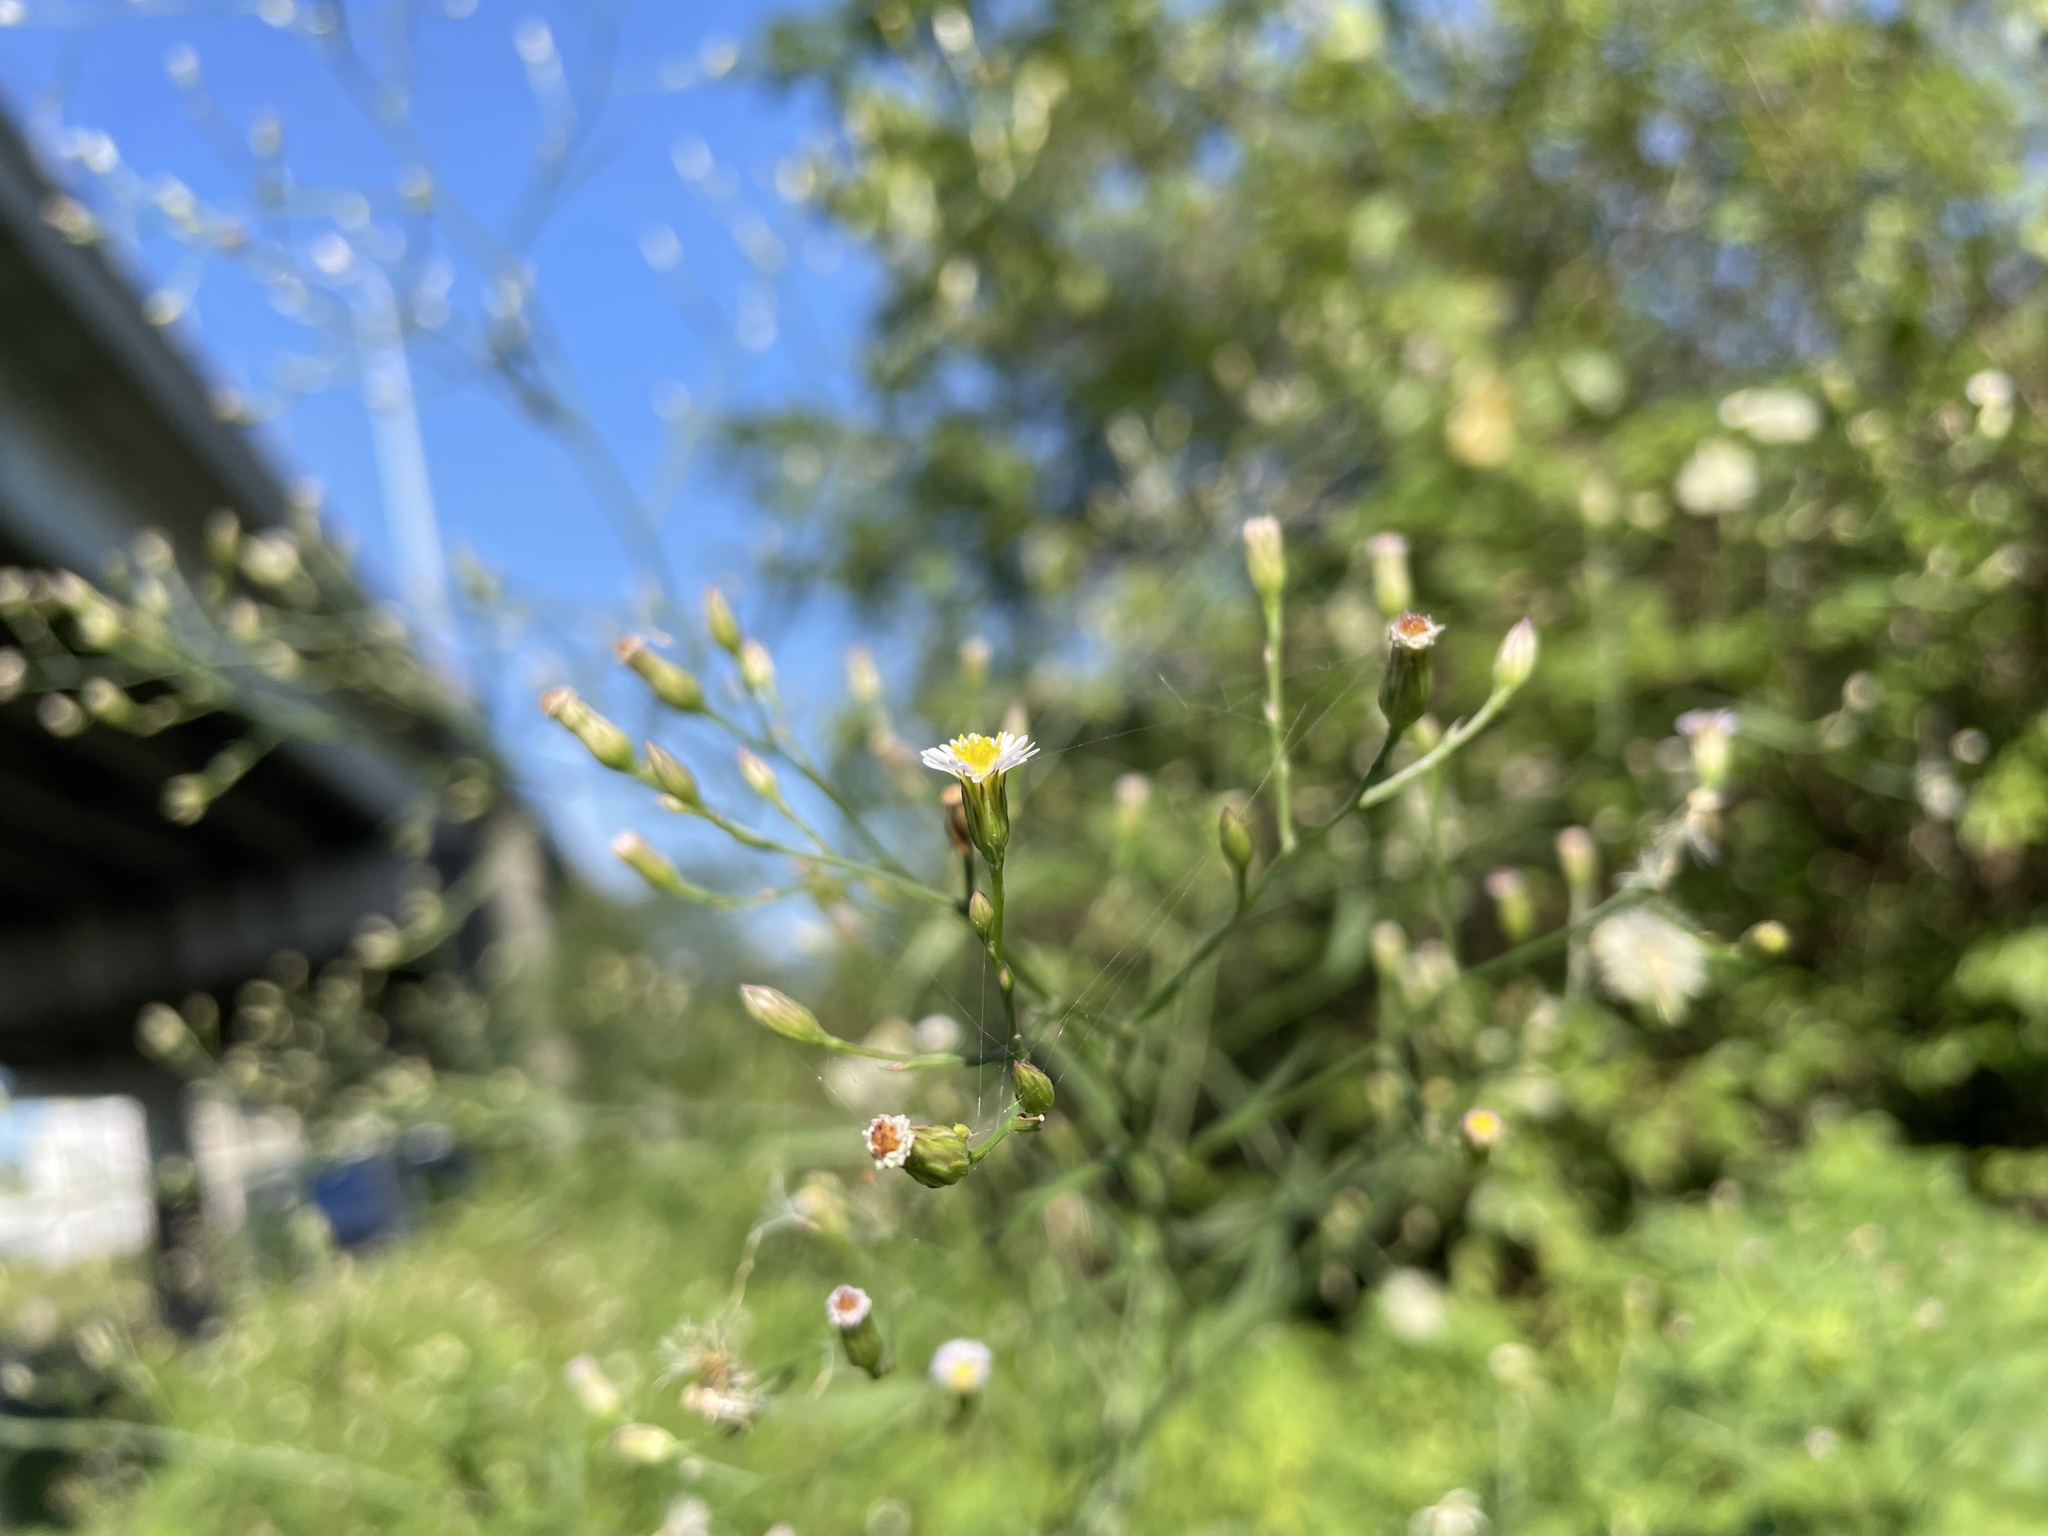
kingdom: Plantae
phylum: Tracheophyta
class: Magnoliopsida
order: Asterales
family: Asteraceae
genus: Symphyotrichum
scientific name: Symphyotrichum subulatum
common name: Annual saltmarsh aster
